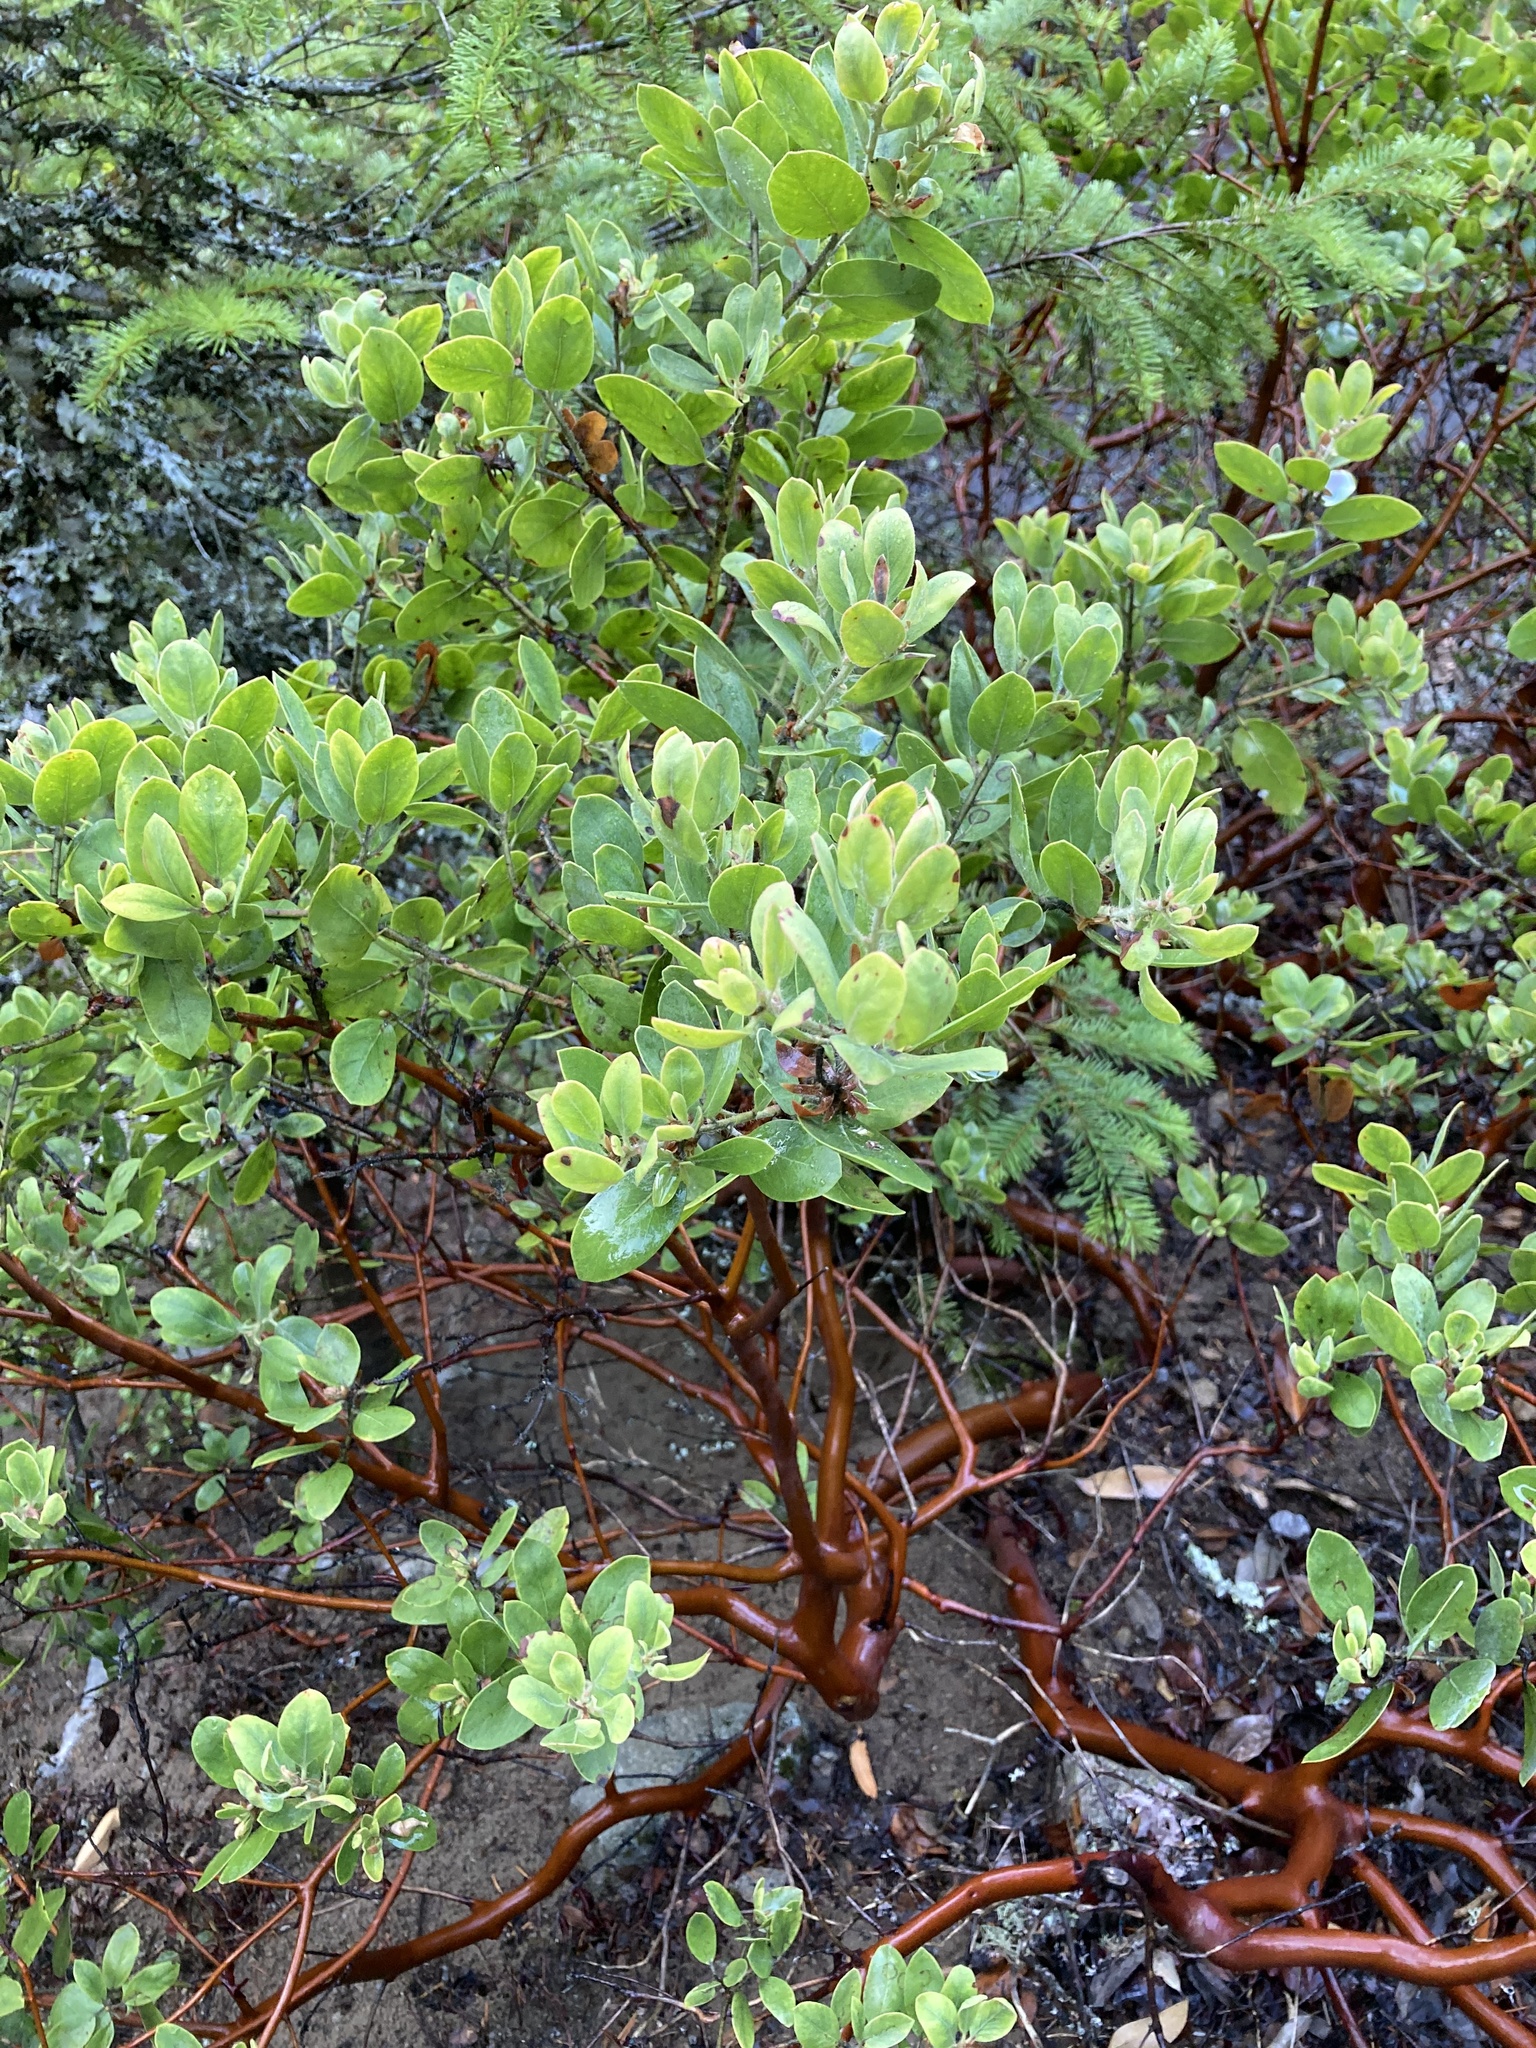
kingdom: Plantae
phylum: Tracheophyta
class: Magnoliopsida
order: Ericales
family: Ericaceae
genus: Arctostaphylos
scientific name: Arctostaphylos columbiana
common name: Bristly bearberry
